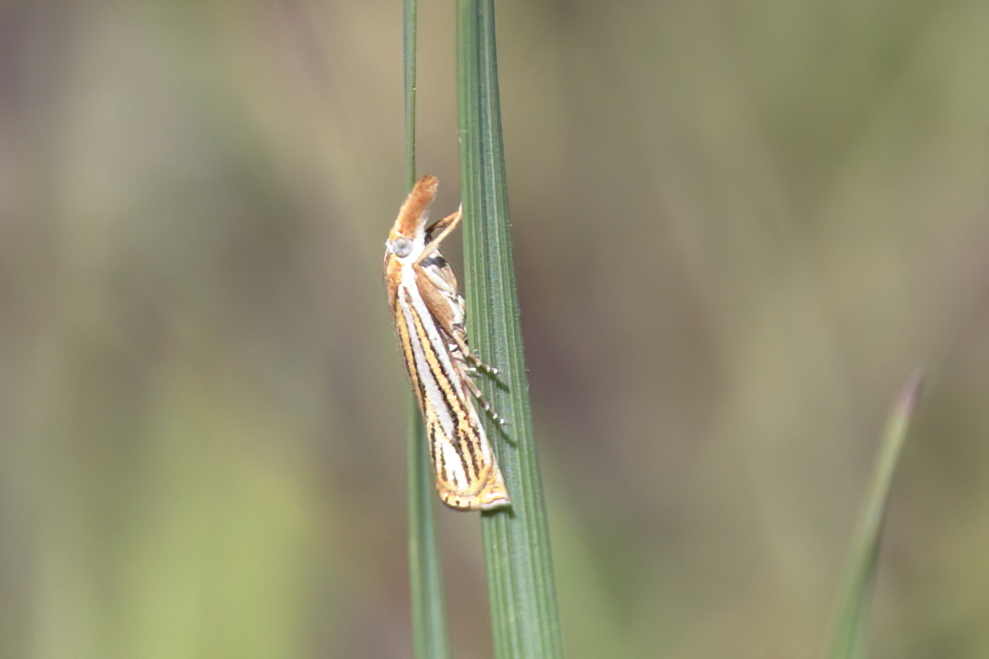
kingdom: Animalia
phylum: Arthropoda
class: Insecta
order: Lepidoptera
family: Crambidae
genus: Crambus
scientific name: Crambus multilinellus
